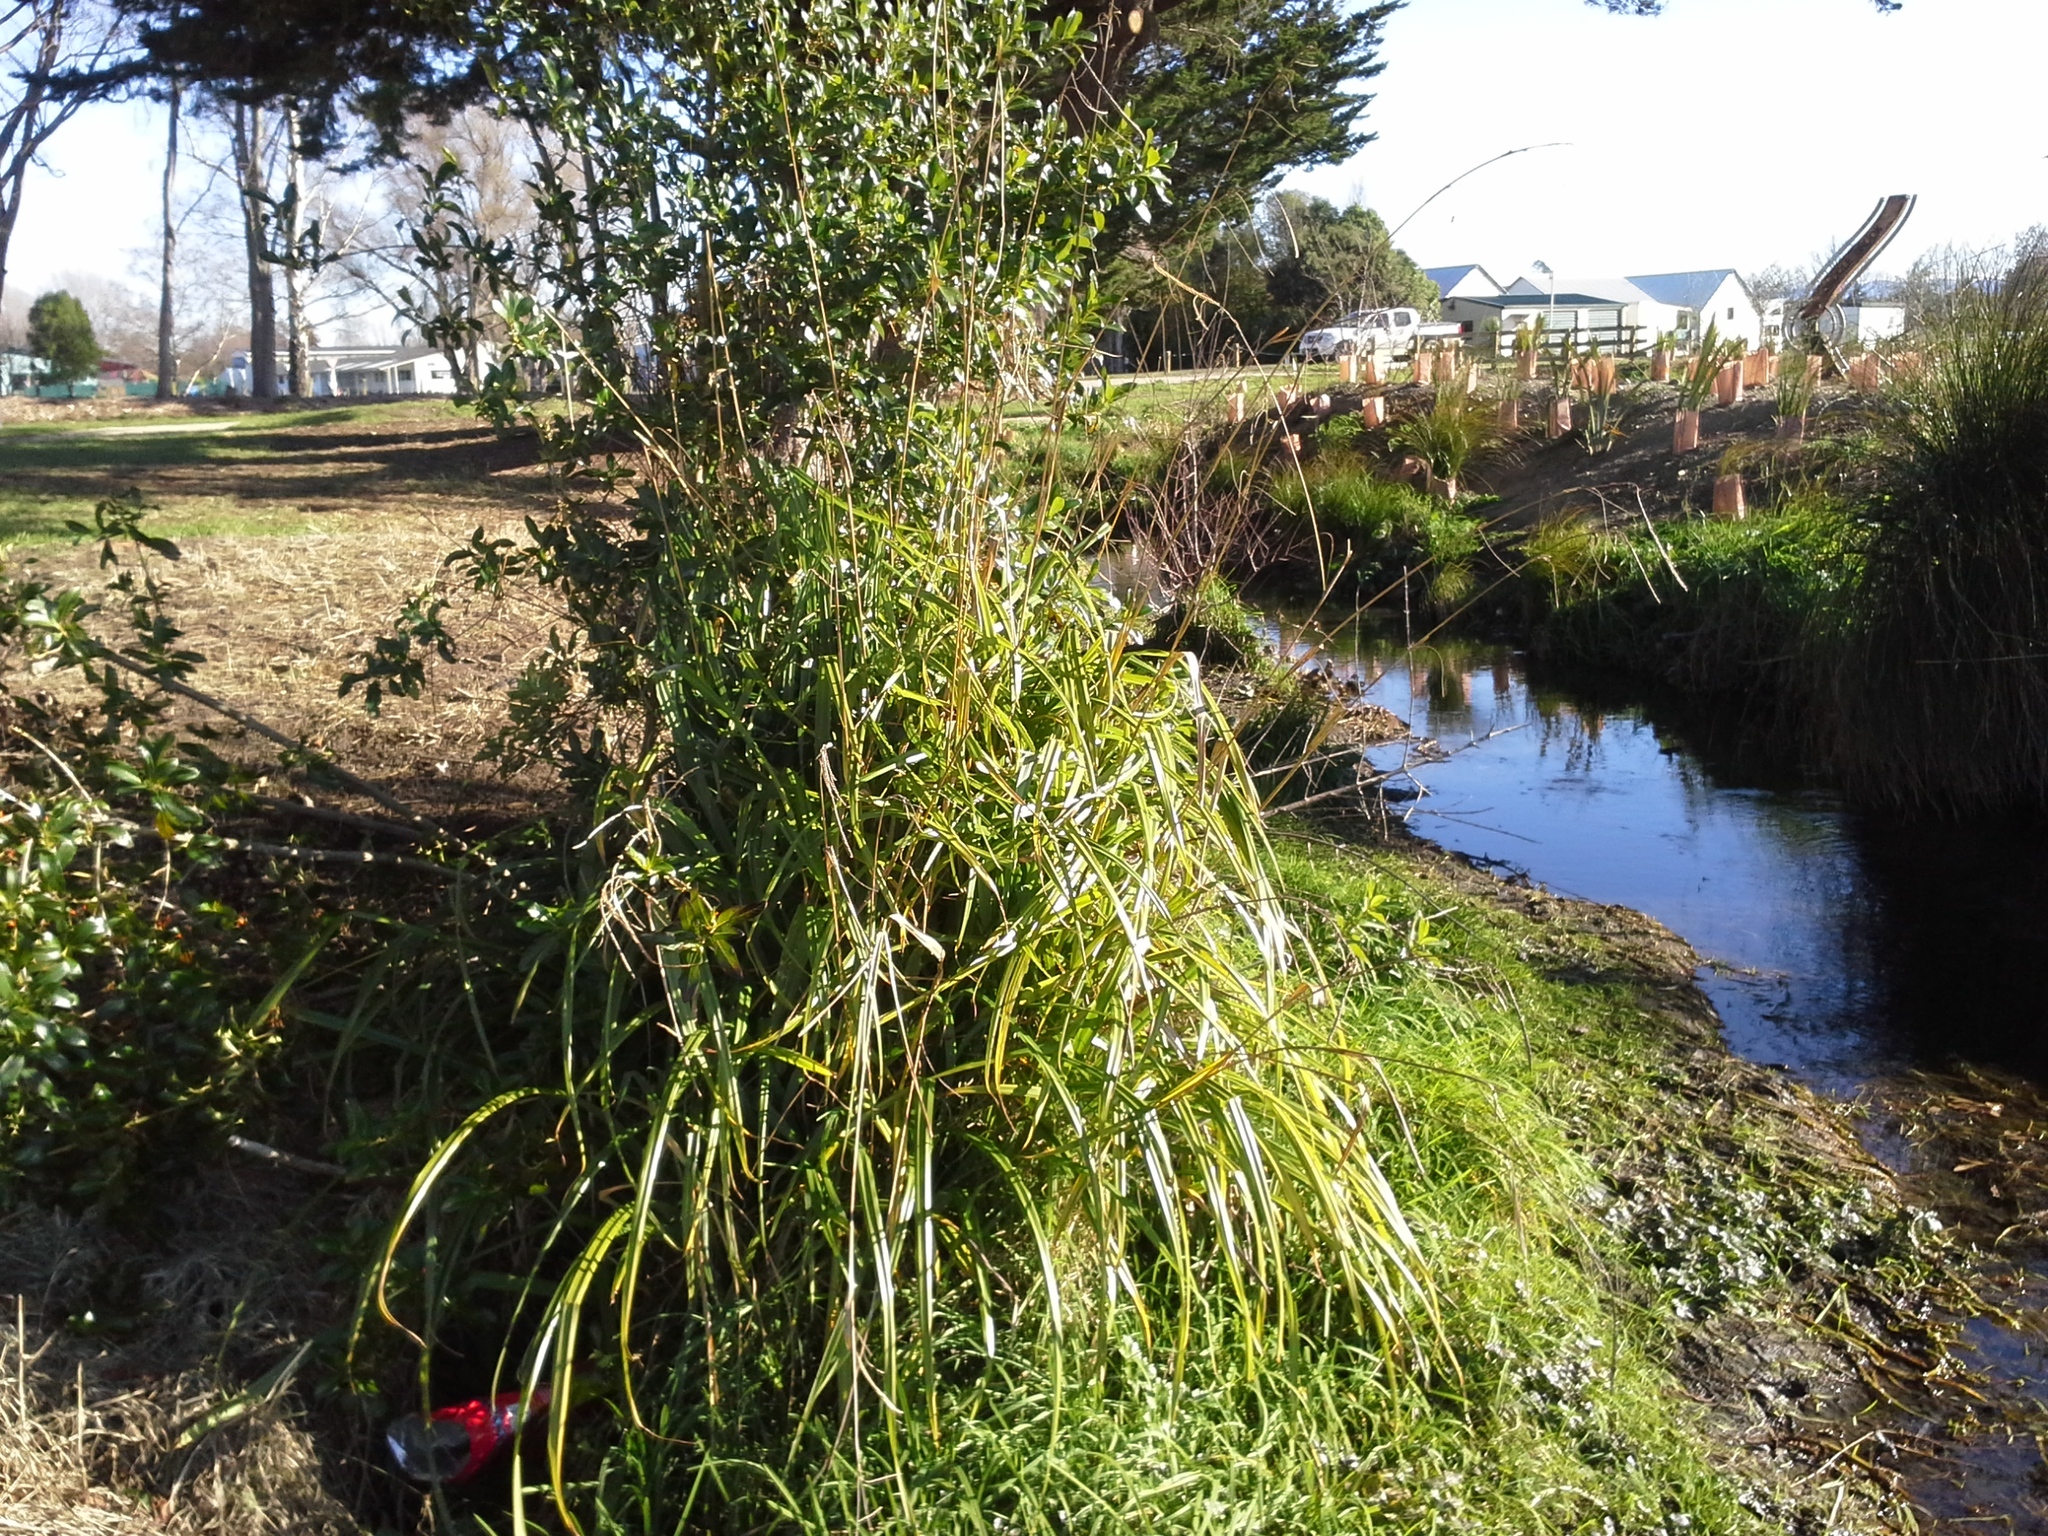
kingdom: Plantae
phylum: Tracheophyta
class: Liliopsida
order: Poales
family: Cyperaceae
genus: Carex
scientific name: Carex pendula
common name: Pendulous sedge
